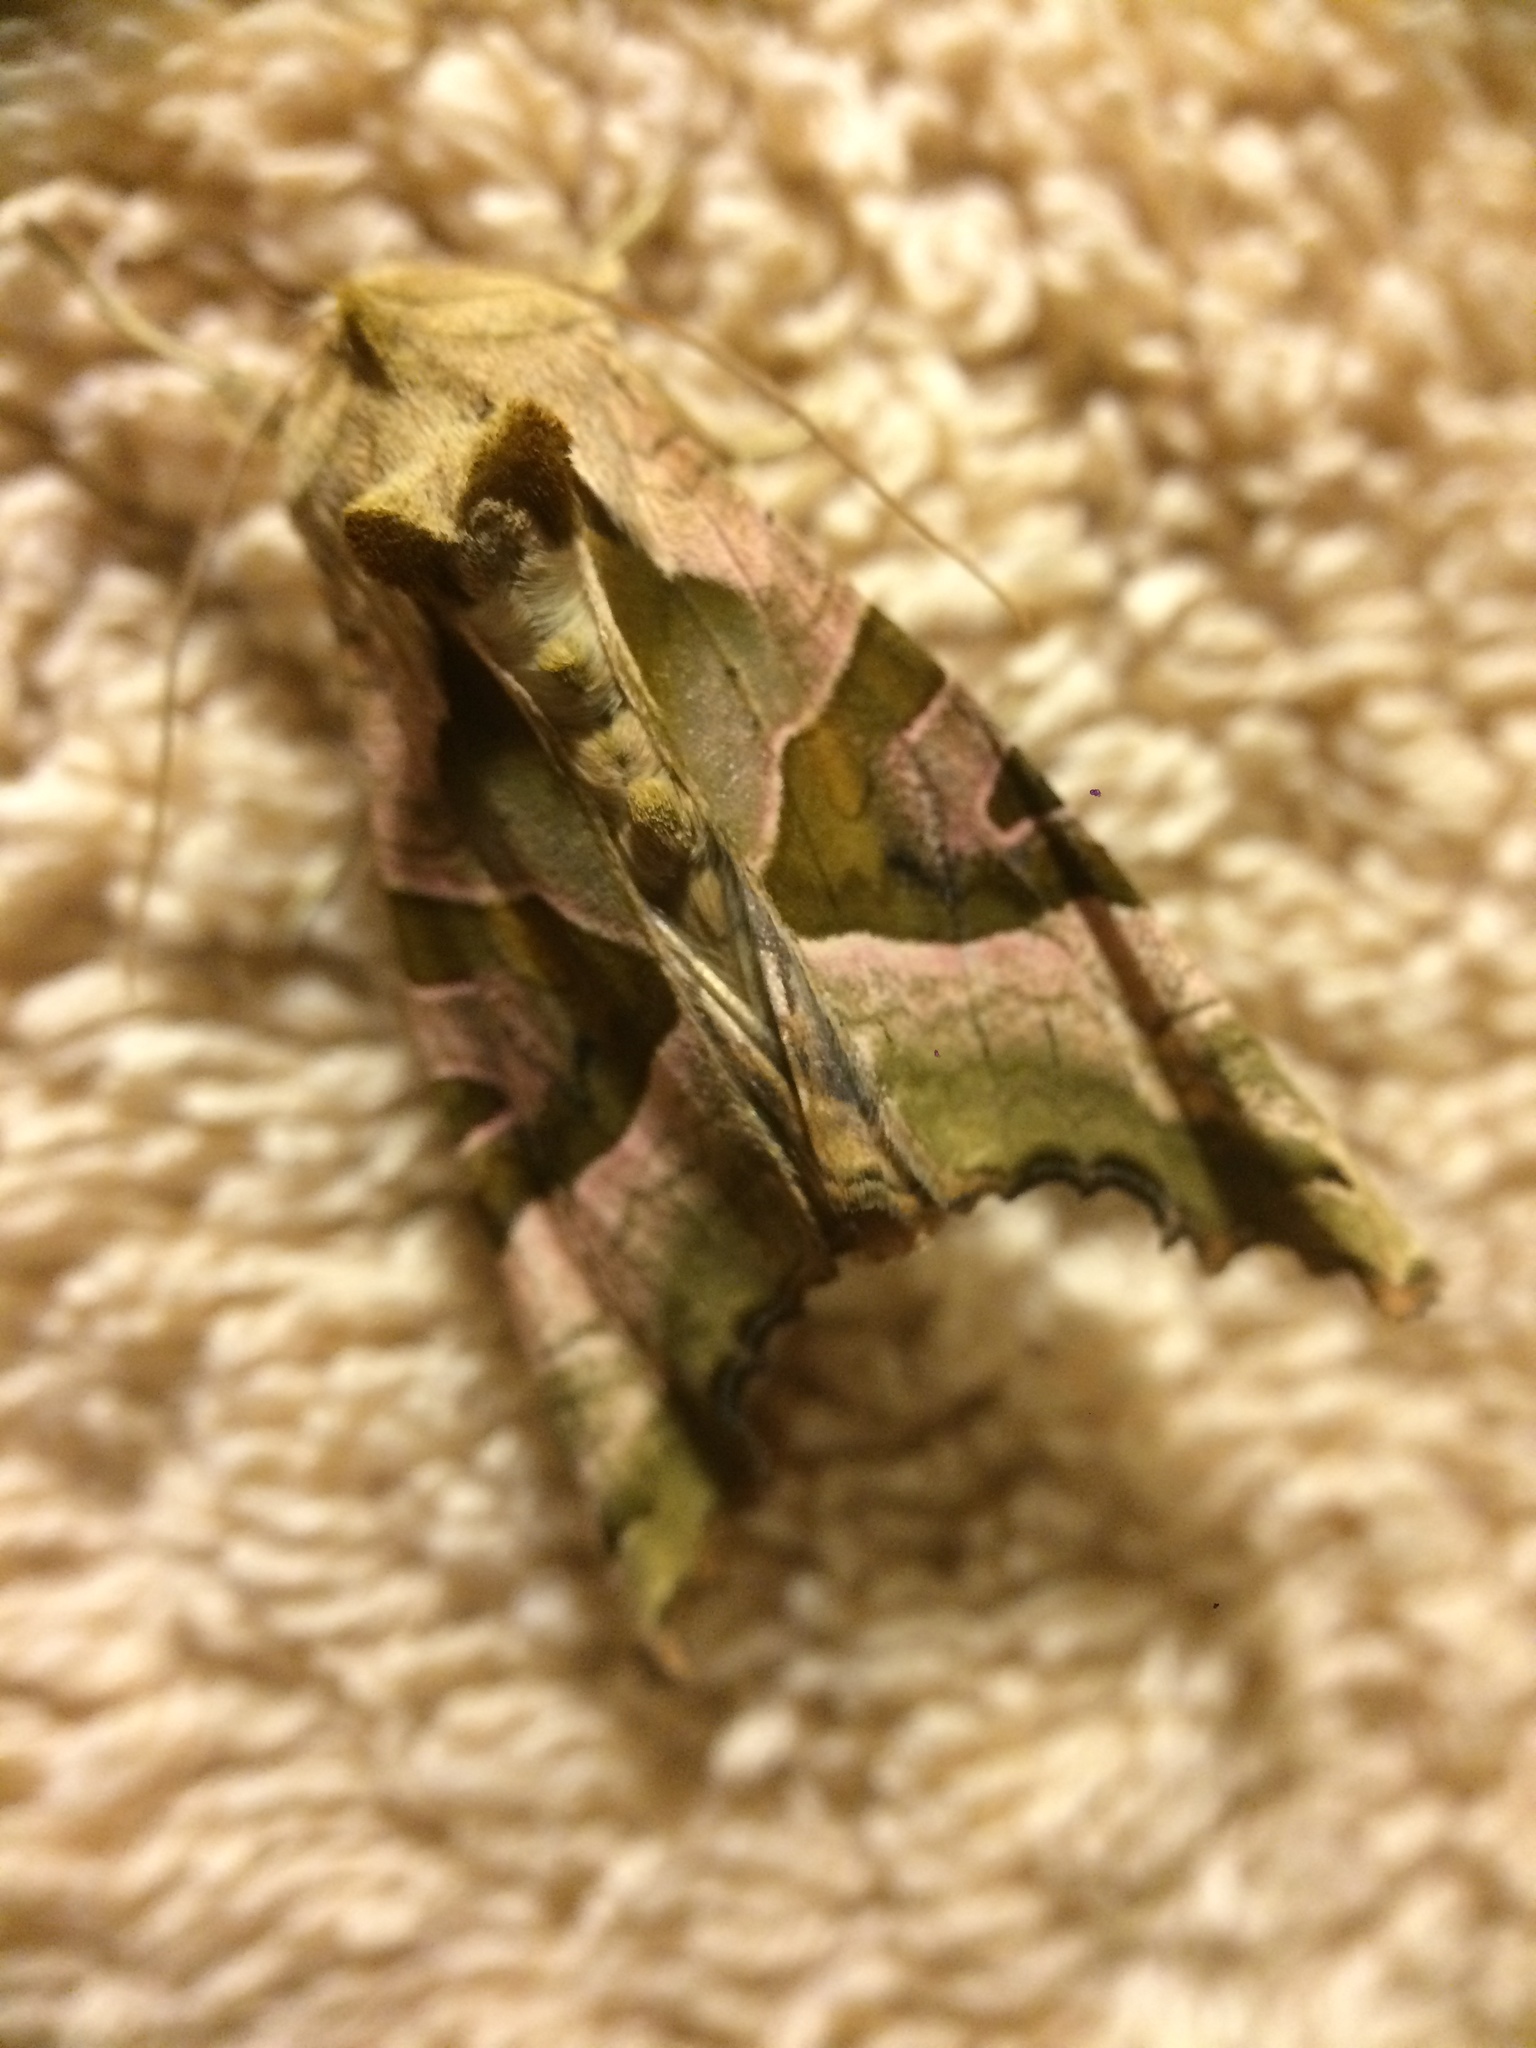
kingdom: Animalia
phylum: Arthropoda
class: Insecta
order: Lepidoptera
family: Noctuidae
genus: Phlogophora
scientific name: Phlogophora meticulosa
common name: Angle shades
